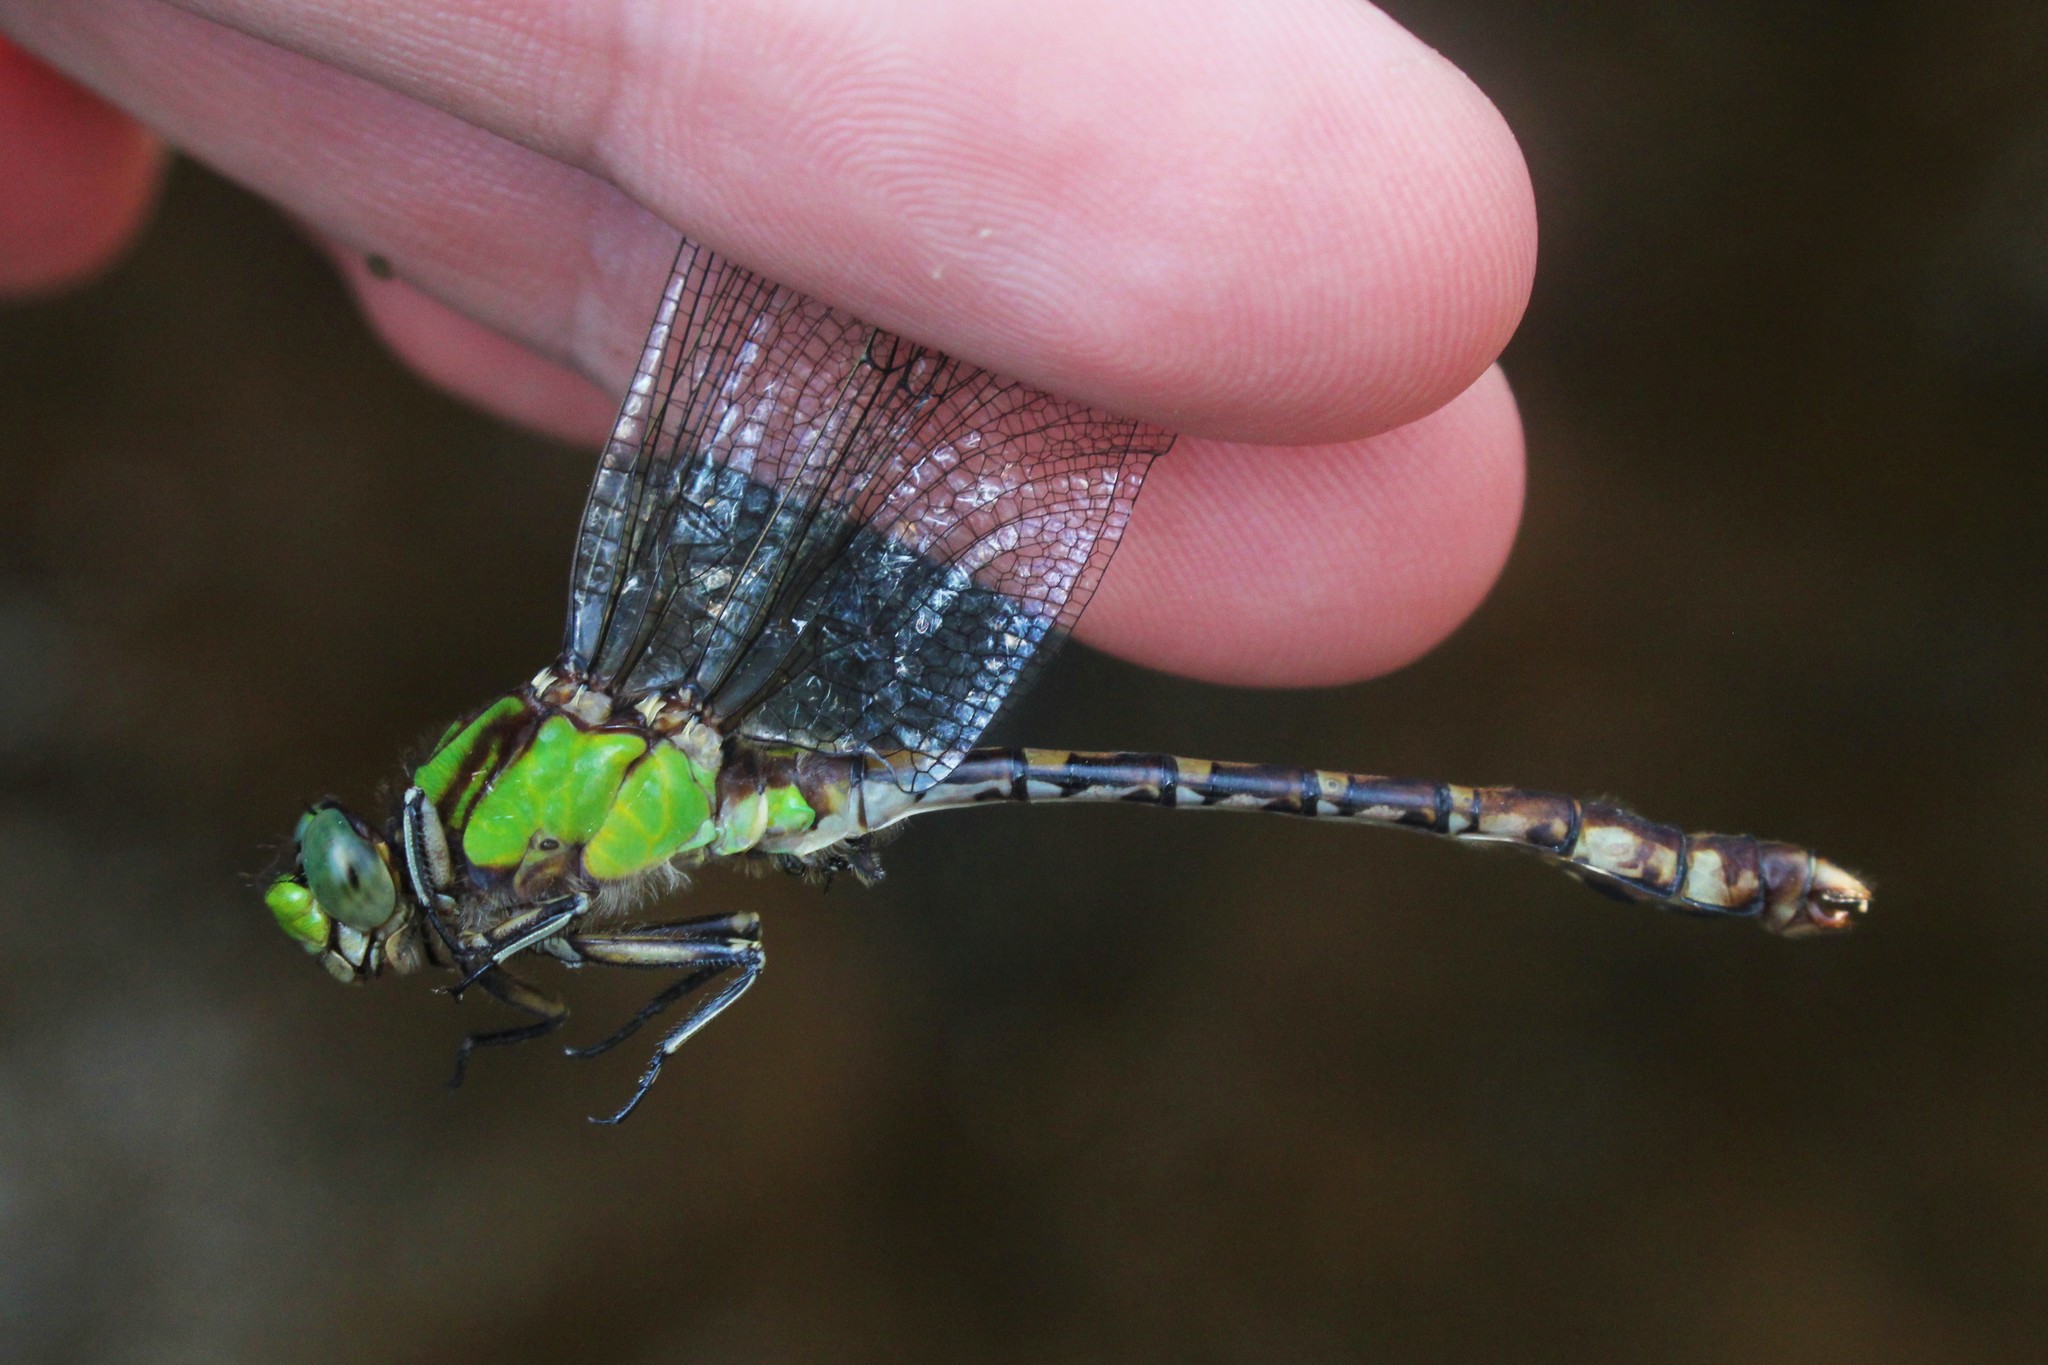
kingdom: Animalia
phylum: Arthropoda
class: Insecta
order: Odonata
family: Gomphidae
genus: Ophiogomphus
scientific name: Ophiogomphus rupinsulensis
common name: Rusty snaketail
